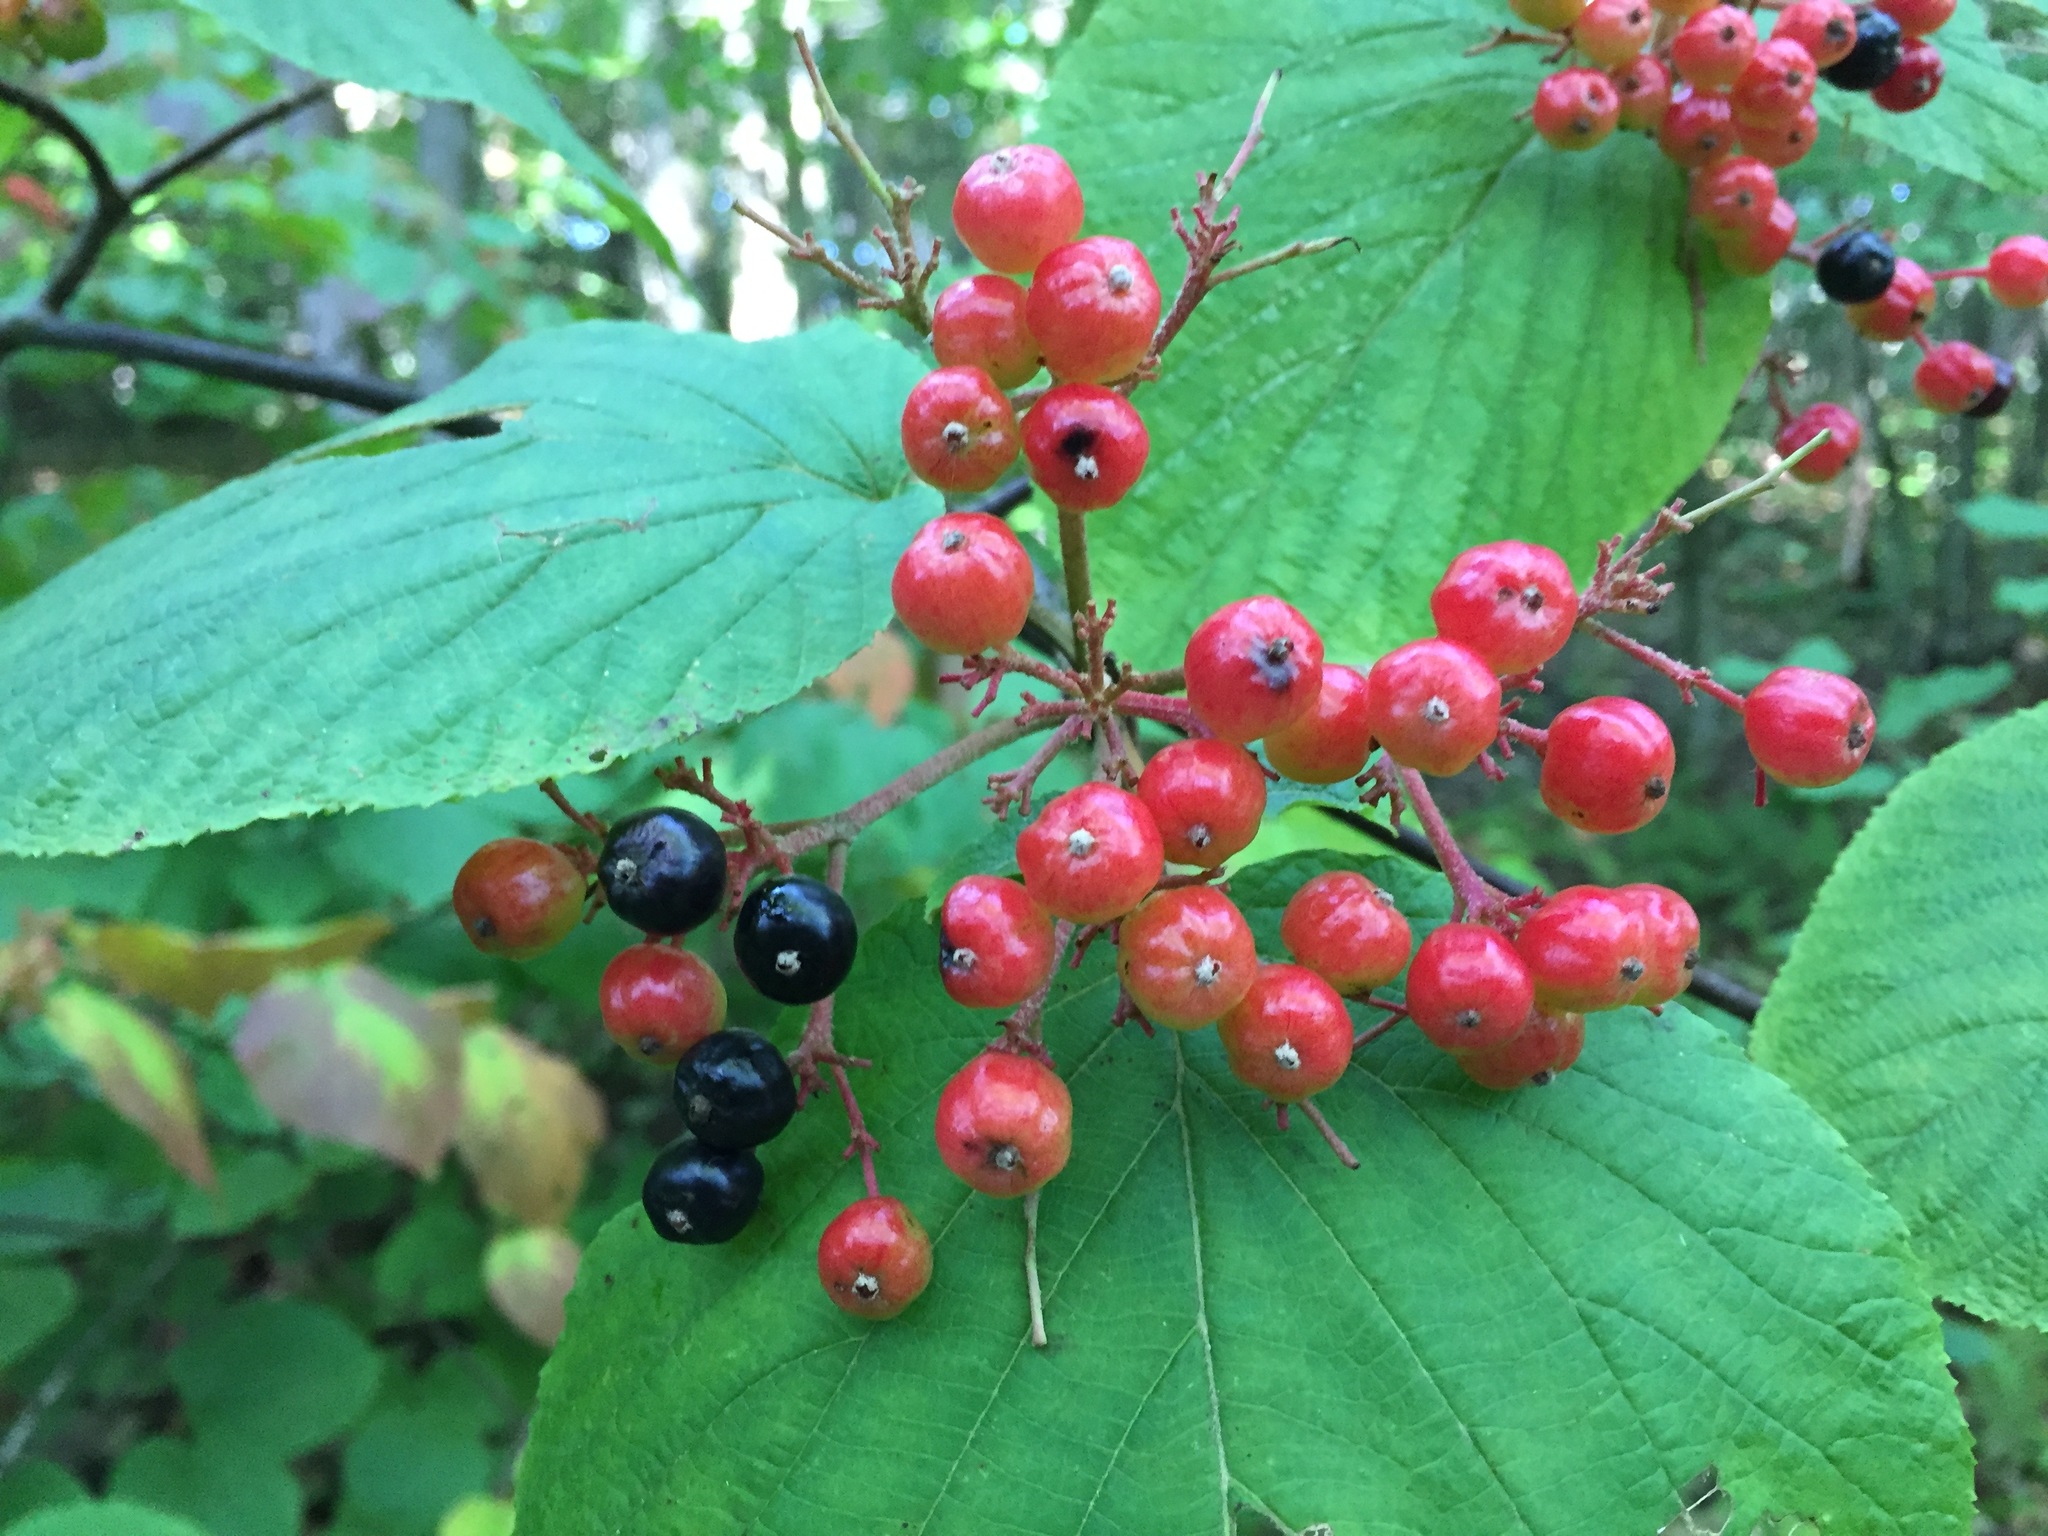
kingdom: Plantae
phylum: Tracheophyta
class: Magnoliopsida
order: Dipsacales
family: Viburnaceae
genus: Viburnum
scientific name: Viburnum lantanoides
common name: Hobblebush
